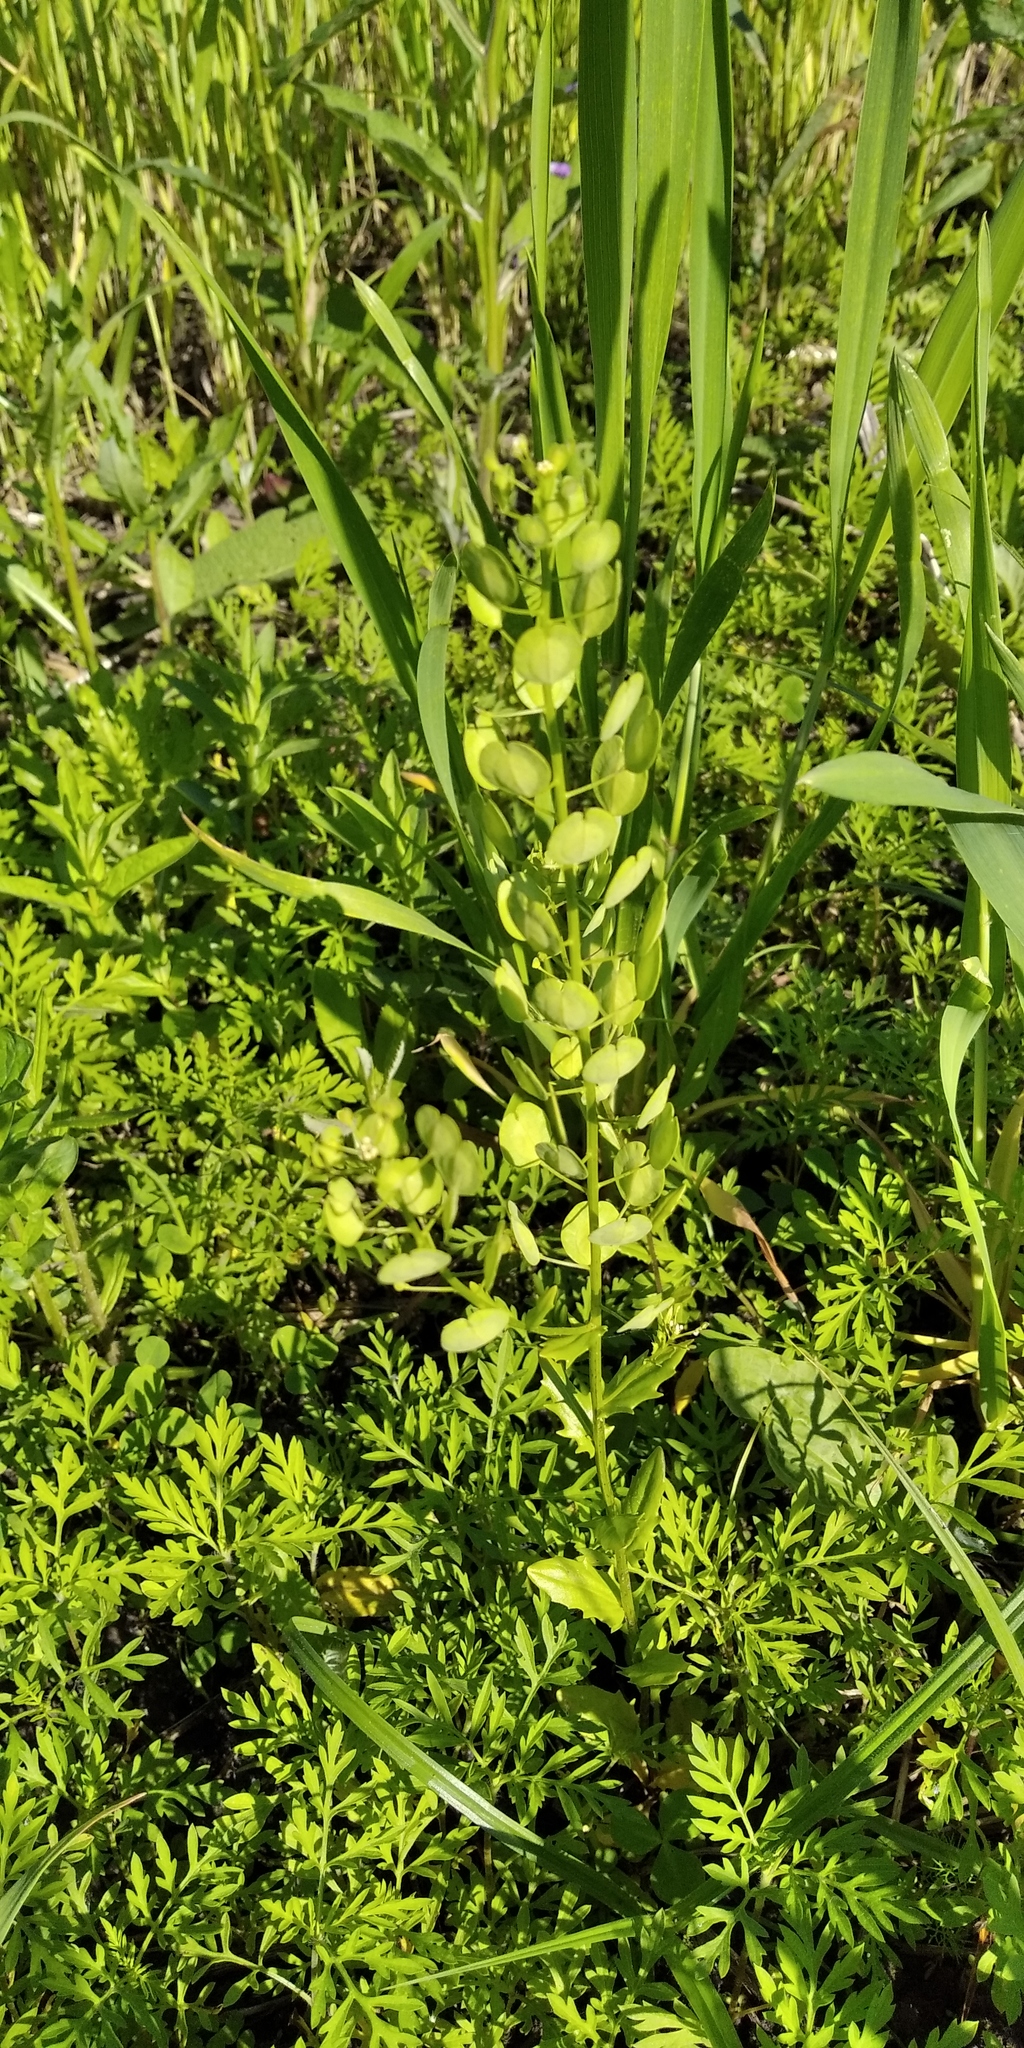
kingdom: Plantae
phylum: Tracheophyta
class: Magnoliopsida
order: Brassicales
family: Brassicaceae
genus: Thlaspi
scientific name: Thlaspi arvense
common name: Field pennycress
